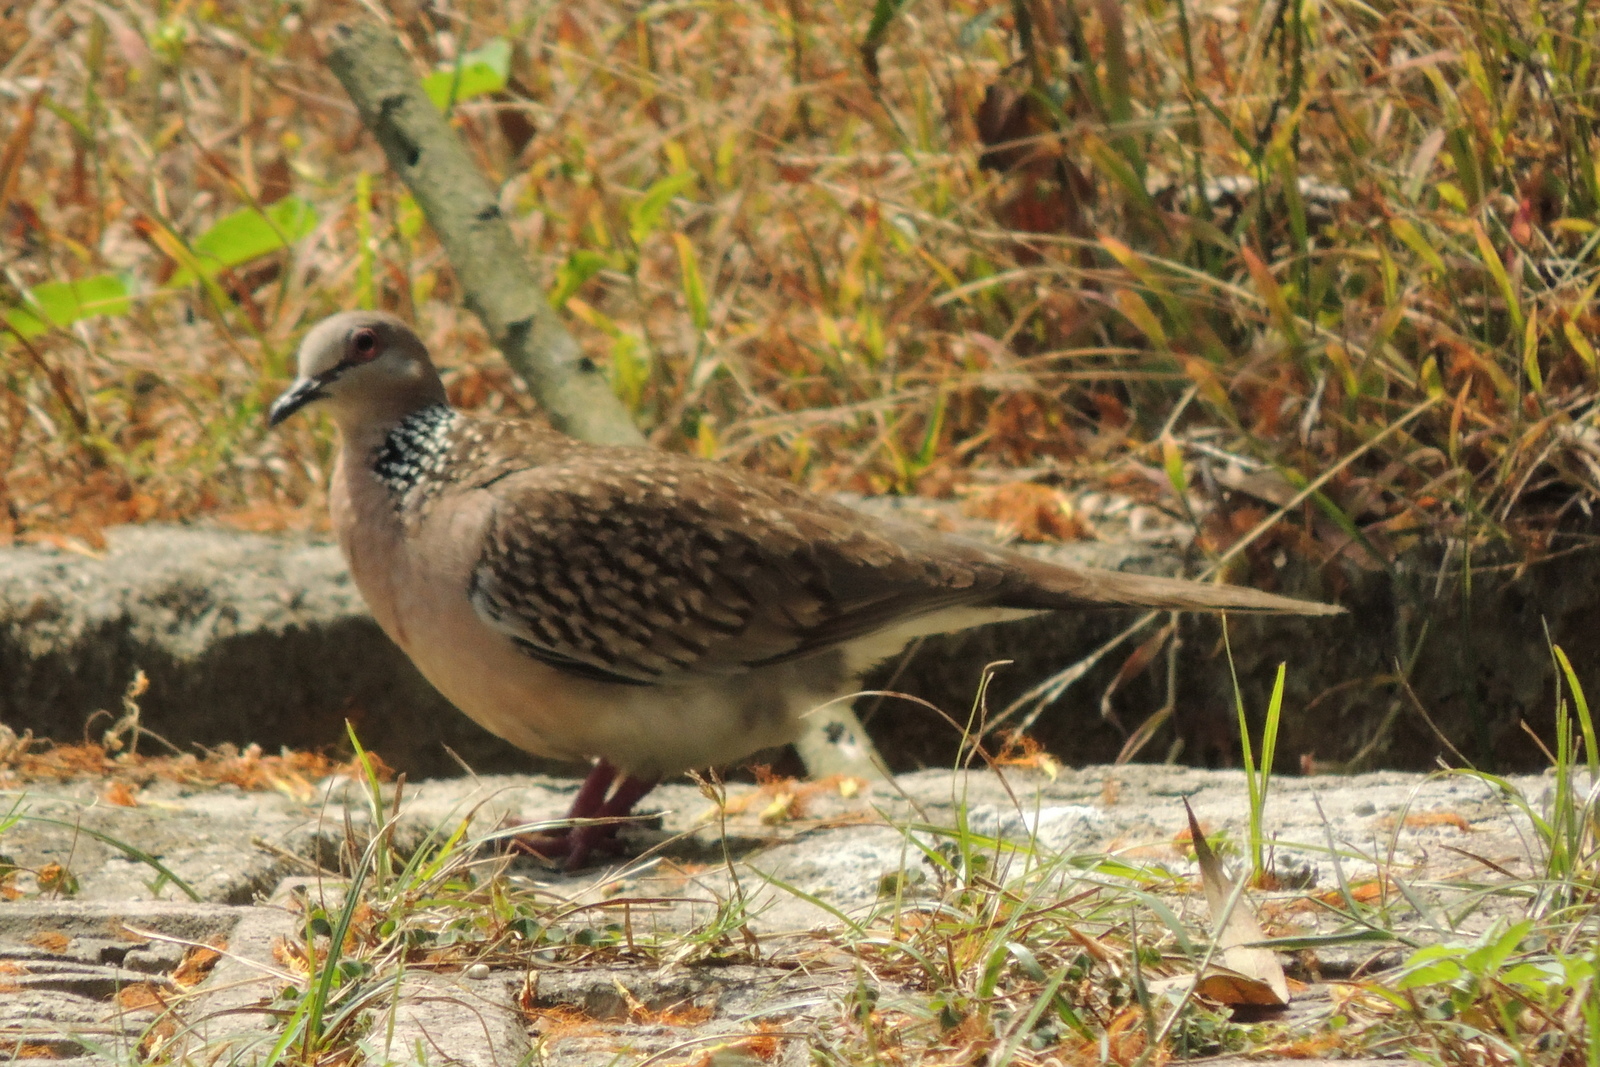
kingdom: Animalia
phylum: Chordata
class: Aves
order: Columbiformes
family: Columbidae
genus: Spilopelia
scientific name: Spilopelia chinensis
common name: Spotted dove
